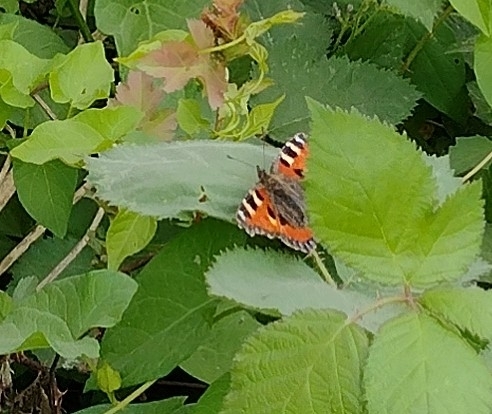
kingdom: Animalia
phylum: Arthropoda
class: Insecta
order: Lepidoptera
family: Nymphalidae
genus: Aglais
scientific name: Aglais urticae
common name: Small tortoiseshell
